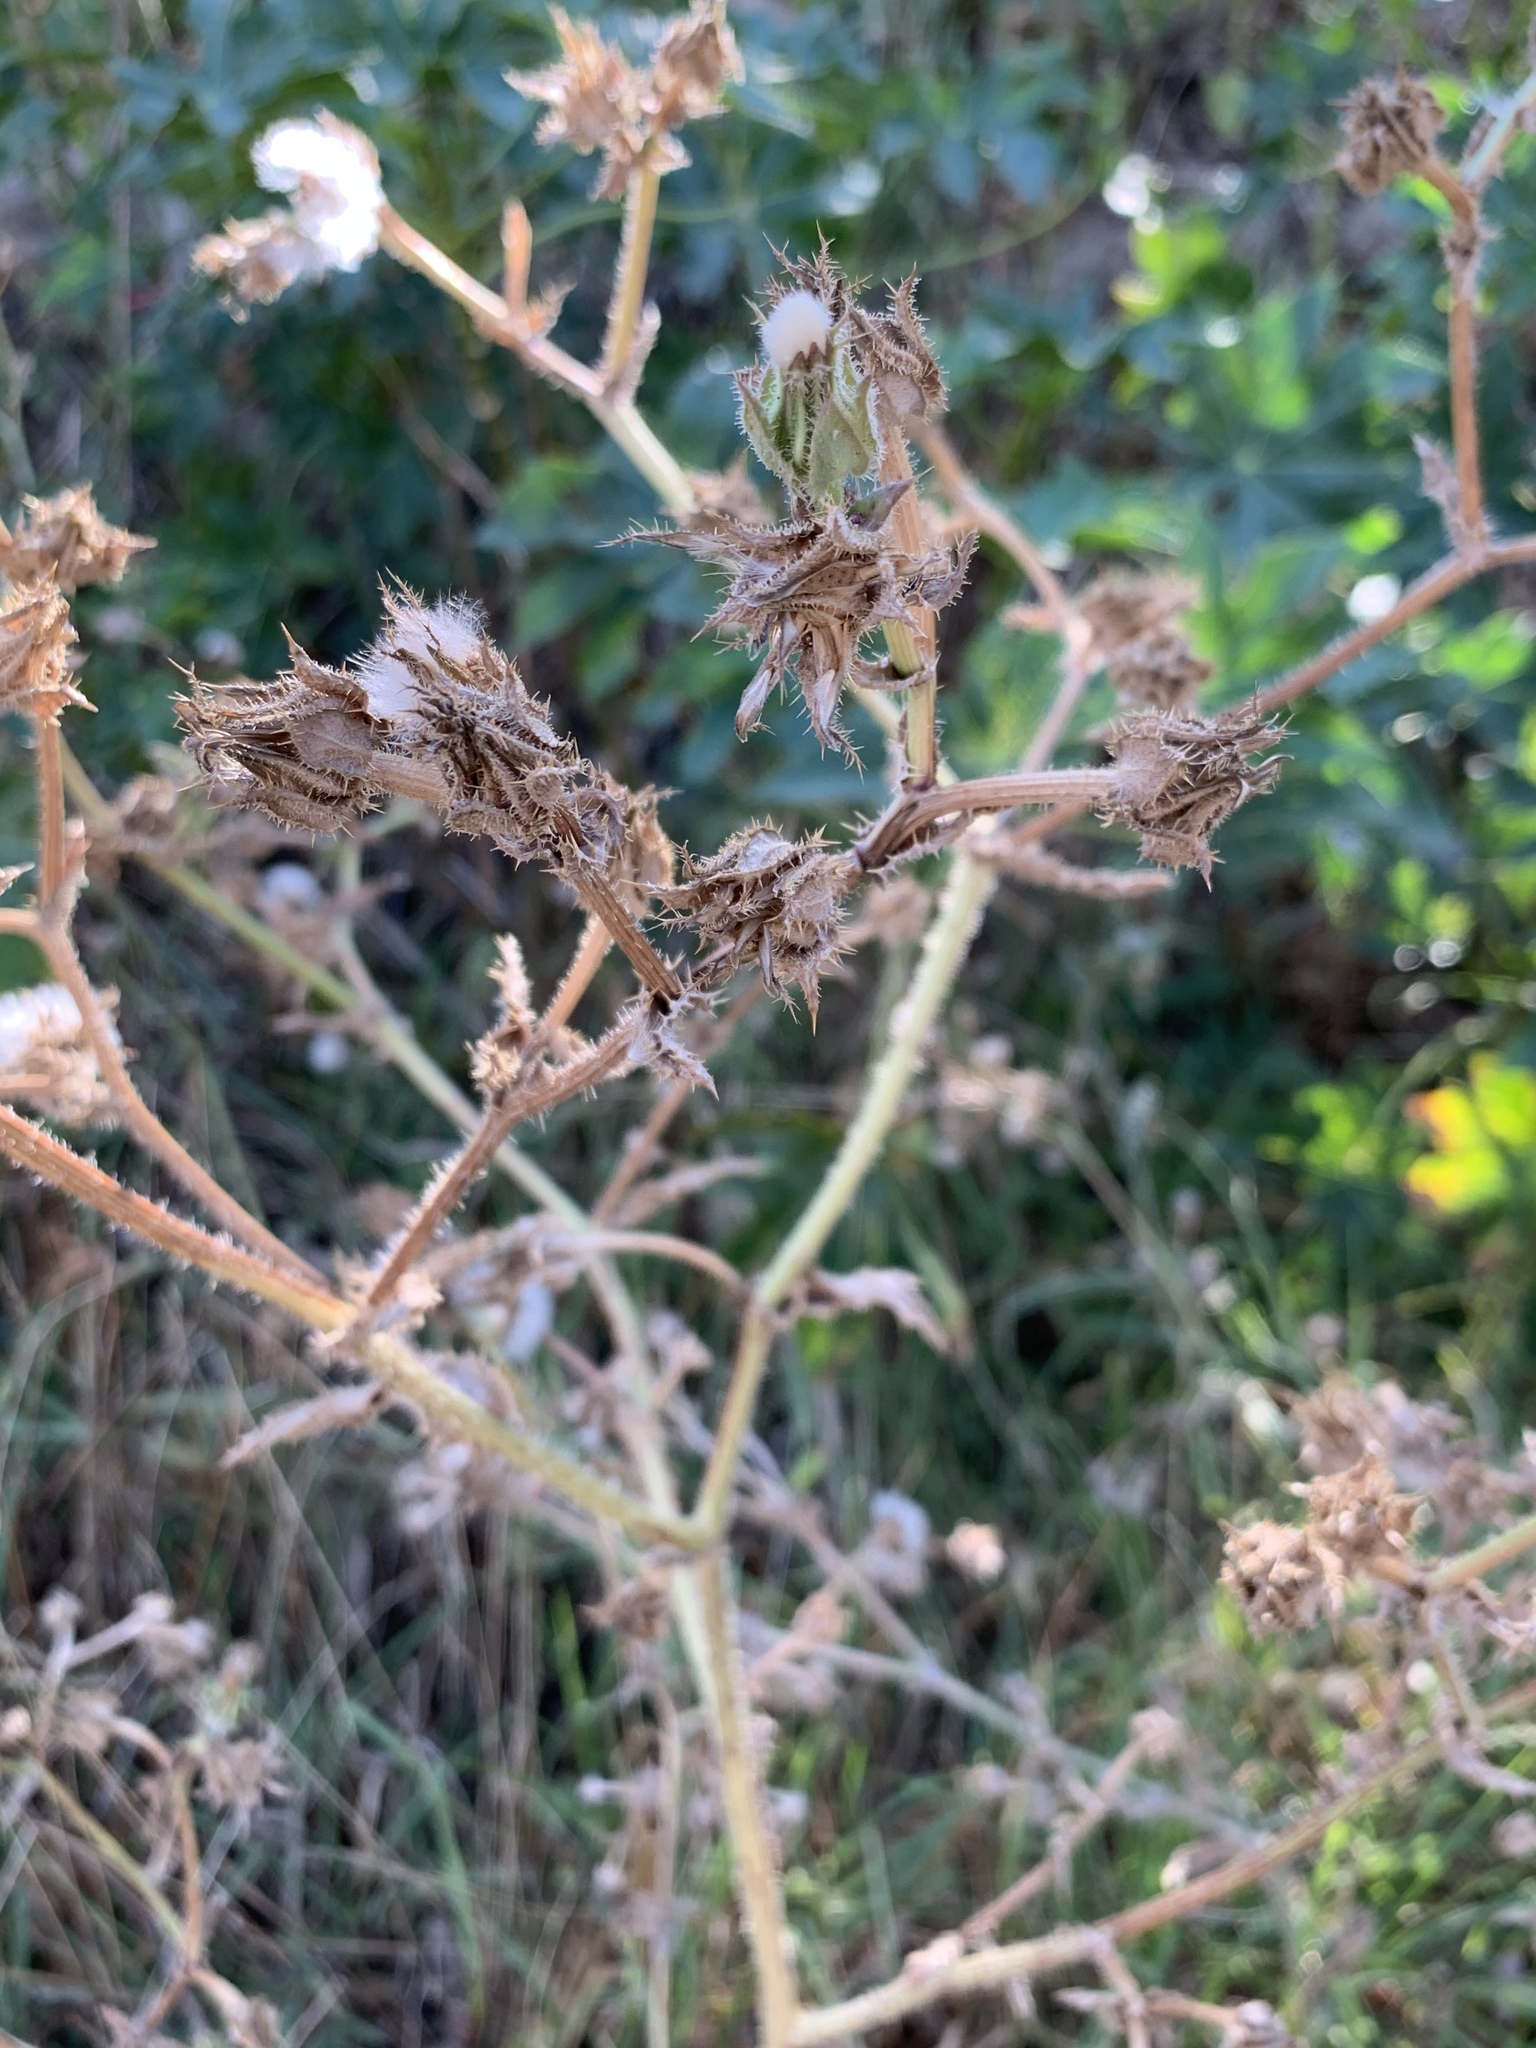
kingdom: Plantae
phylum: Tracheophyta
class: Magnoliopsida
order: Asterales
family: Asteraceae
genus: Helminthotheca
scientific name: Helminthotheca echioides
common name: Ox-tongue
